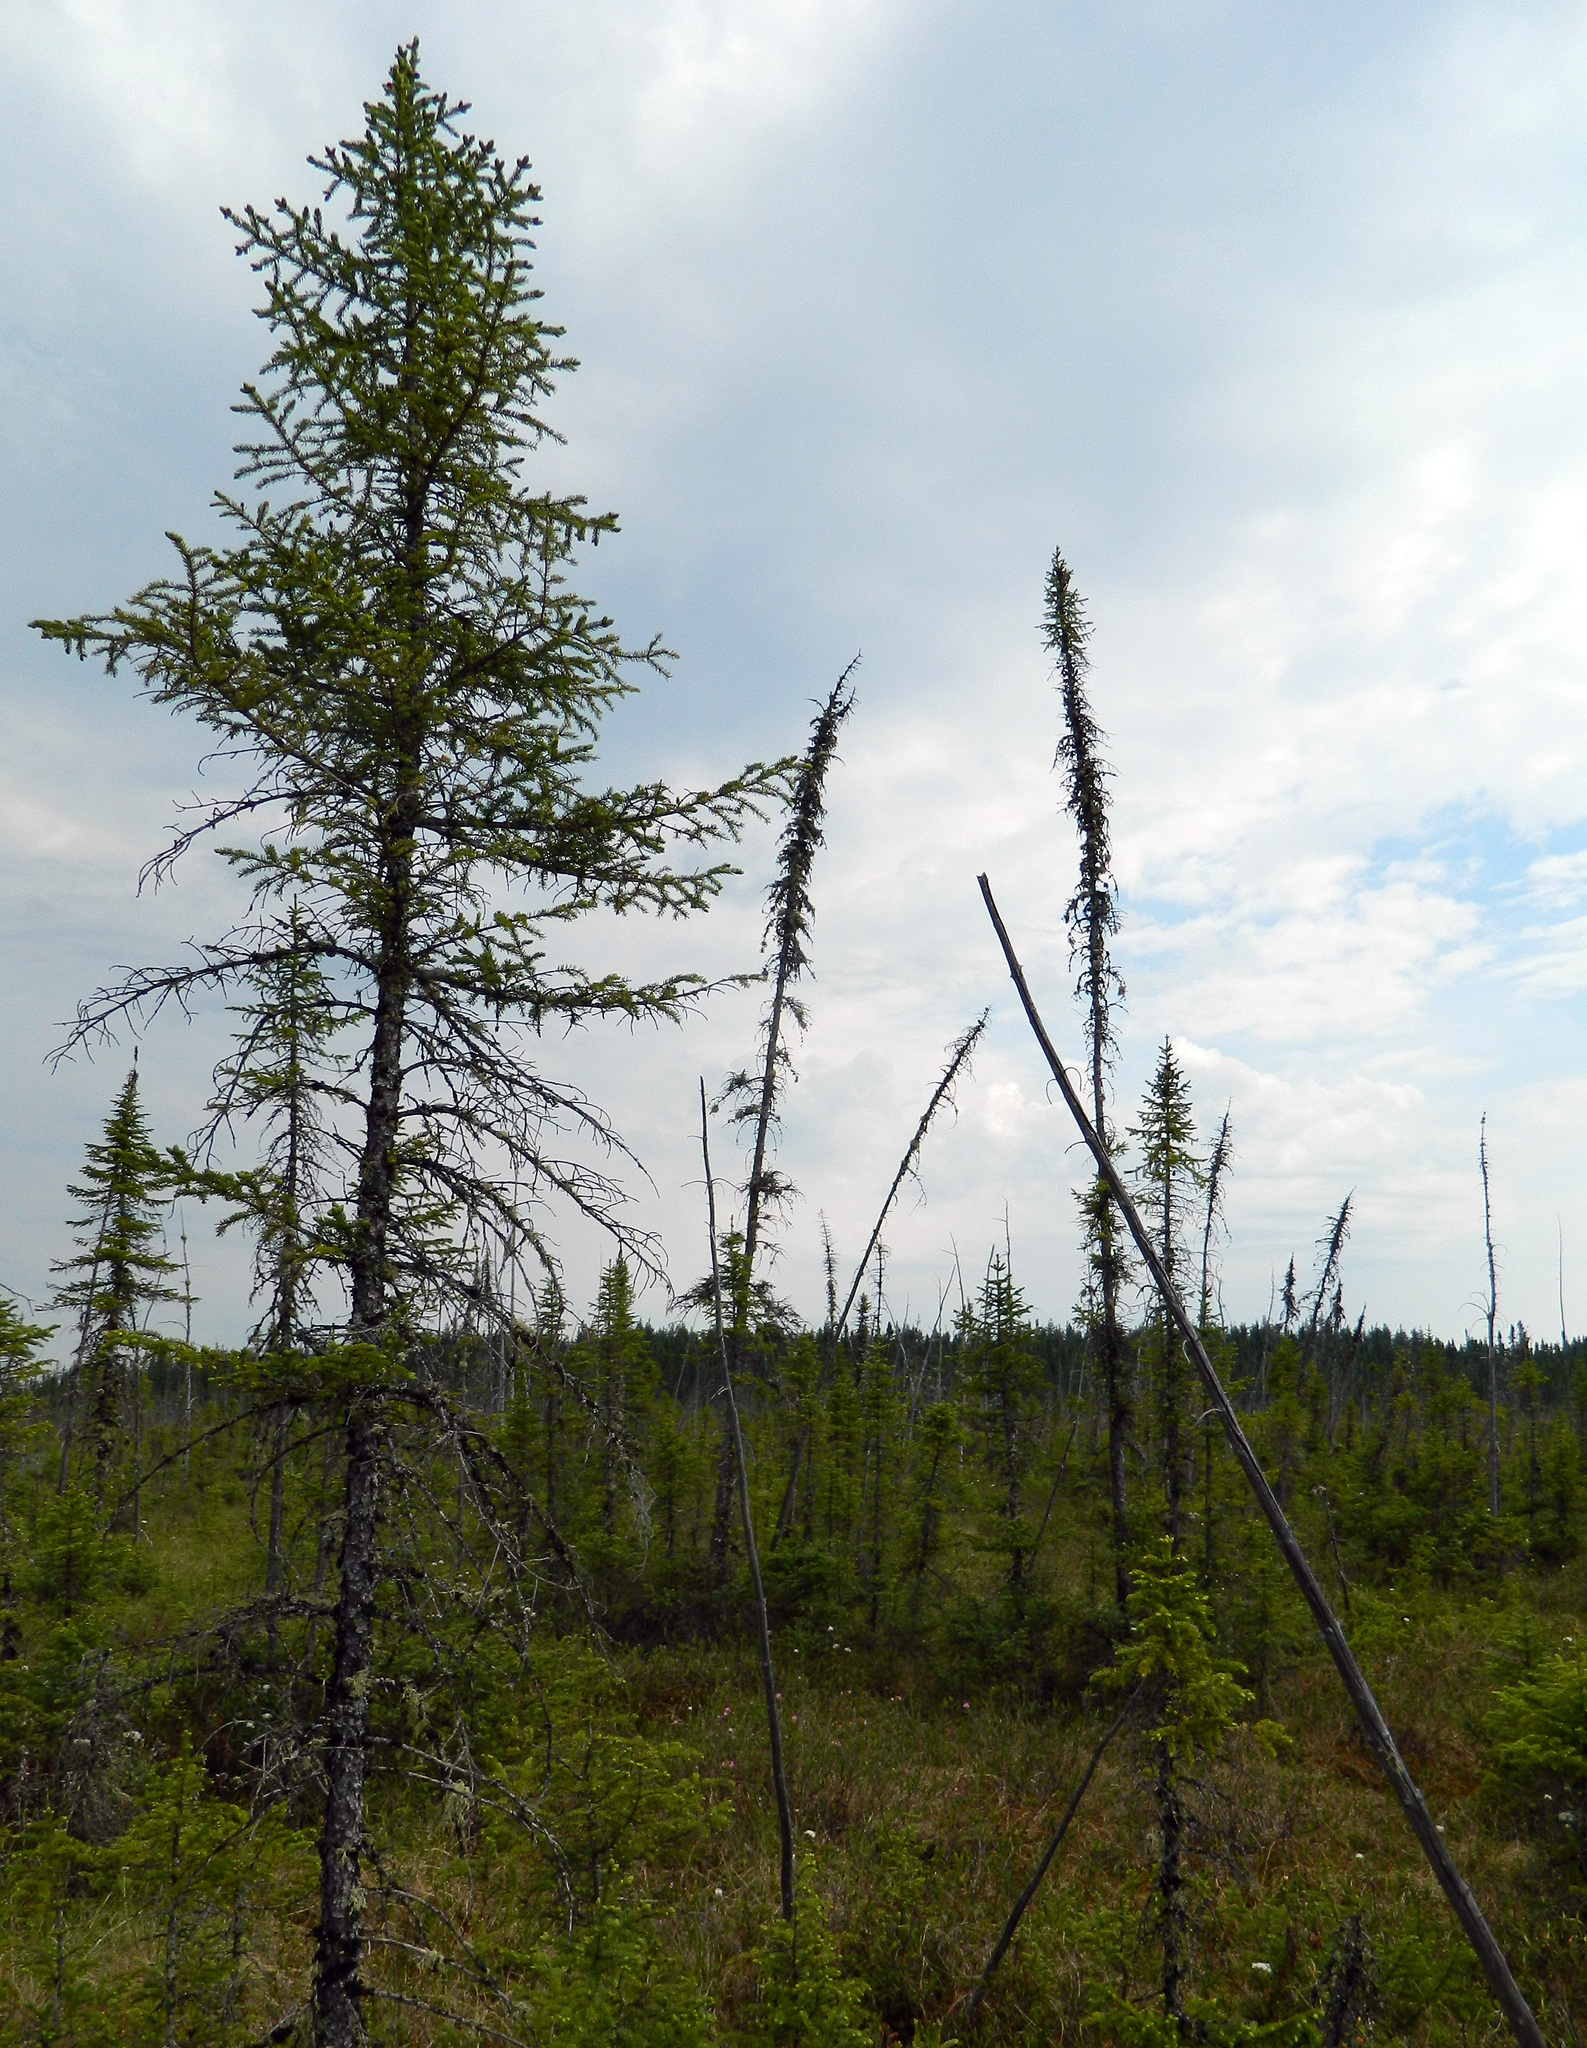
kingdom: Plantae
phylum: Tracheophyta
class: Pinopsida
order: Pinales
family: Pinaceae
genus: Picea
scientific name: Picea mariana
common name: Black spruce
